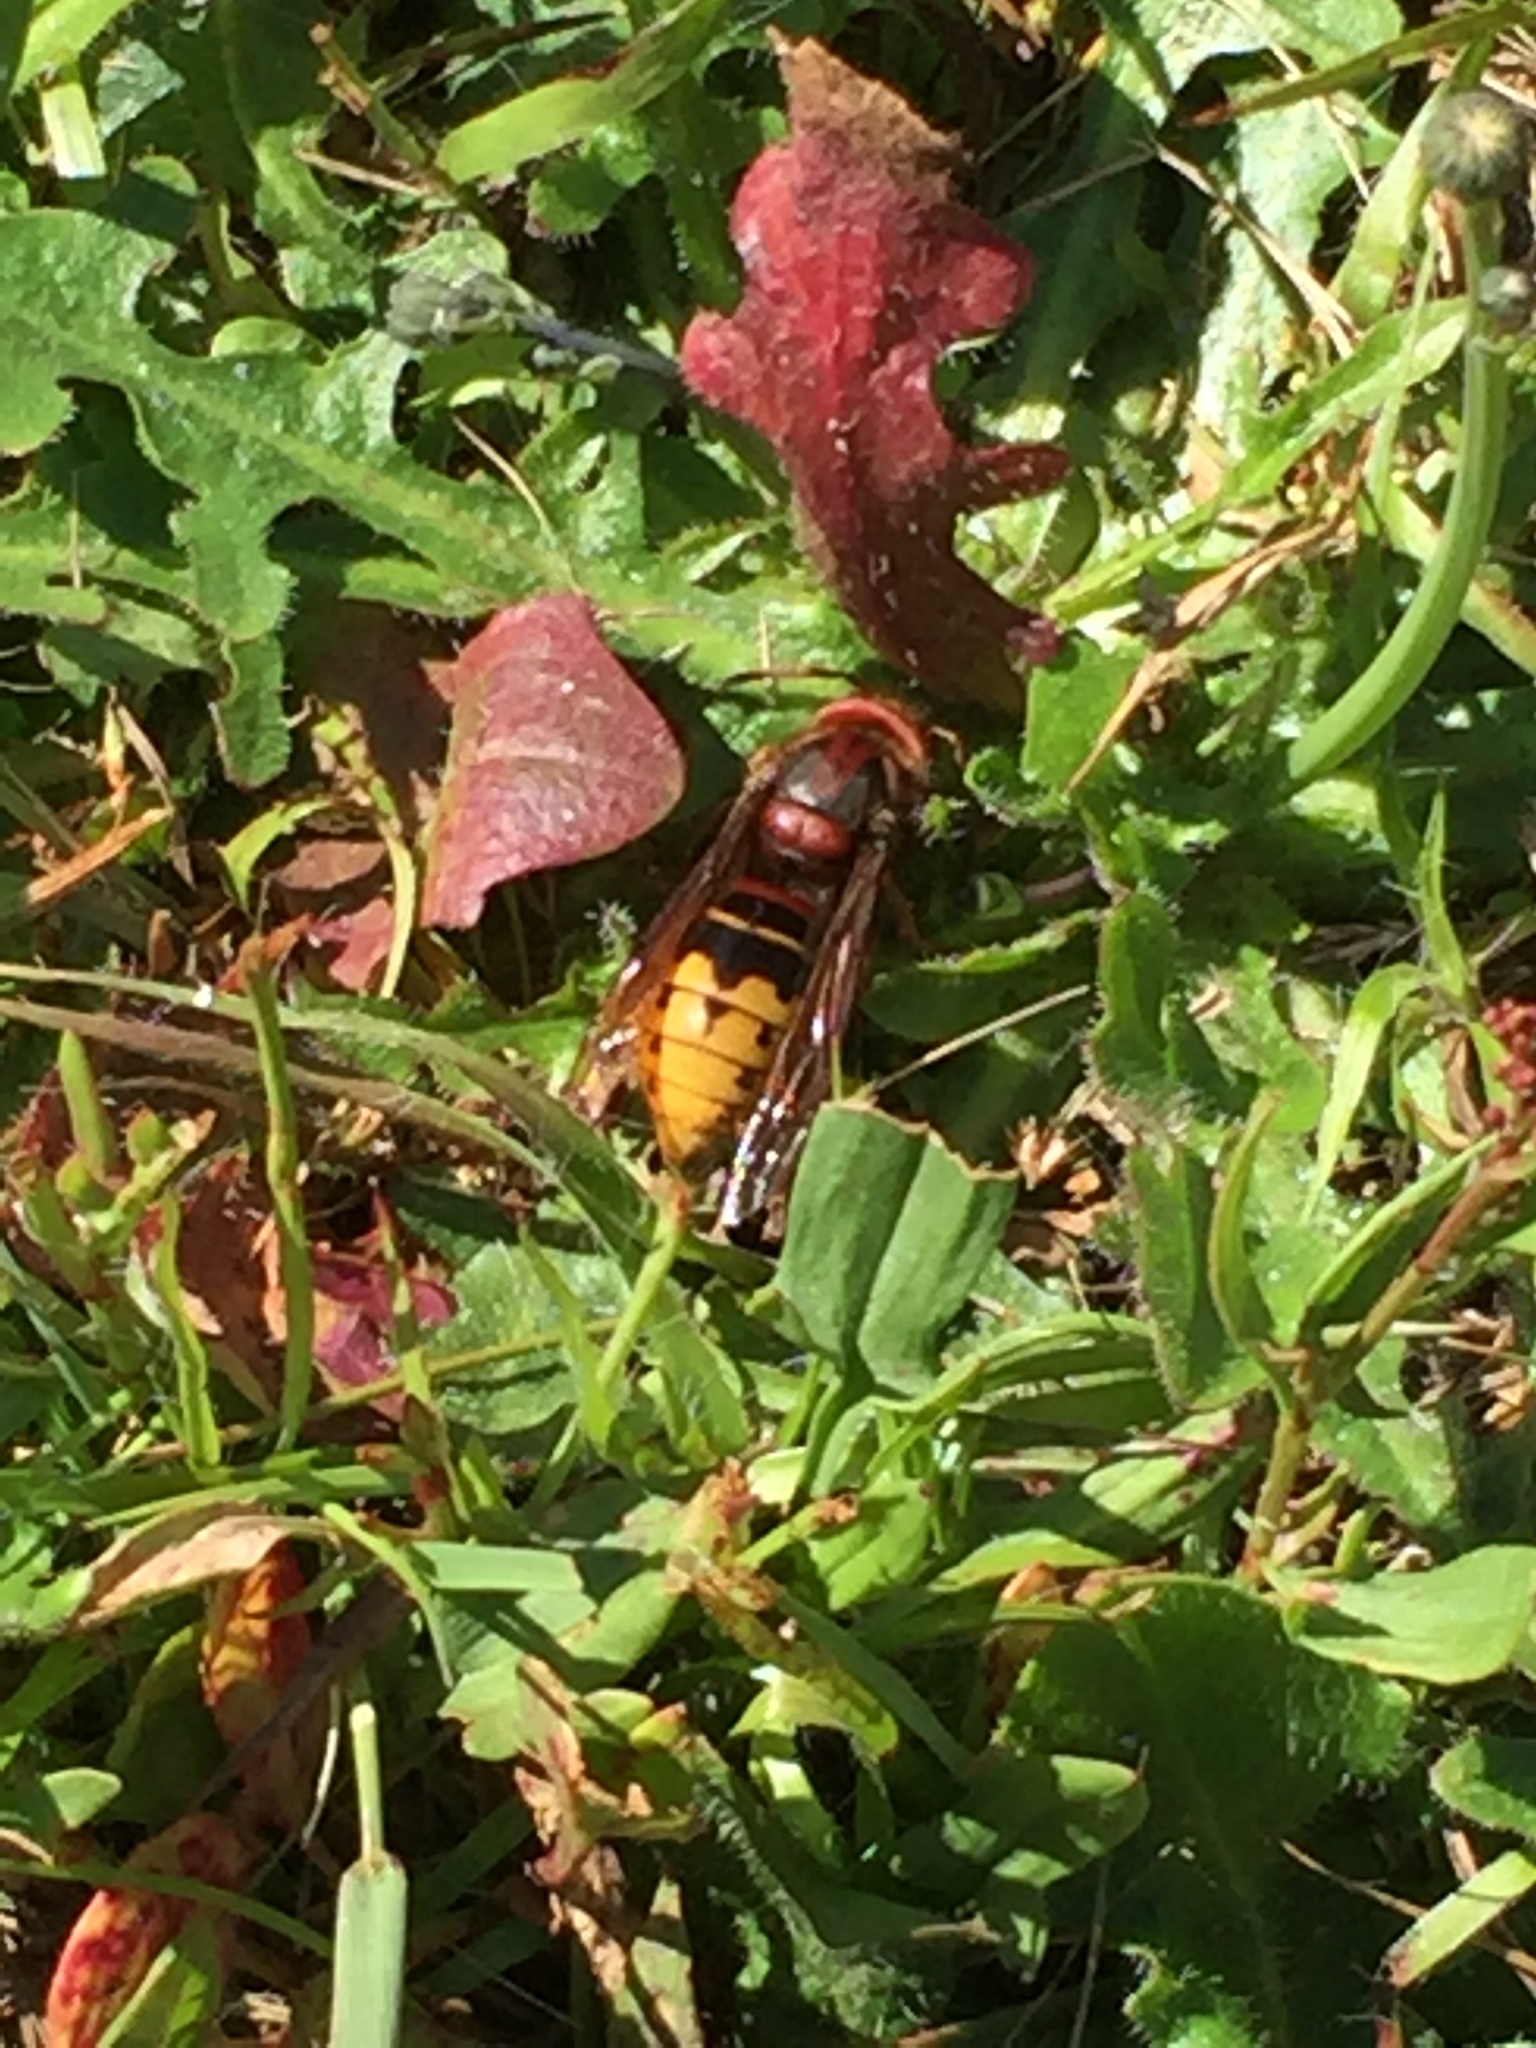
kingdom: Animalia
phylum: Arthropoda
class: Insecta
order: Hymenoptera
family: Vespidae
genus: Vespa
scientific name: Vespa crabro
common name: Hornet
